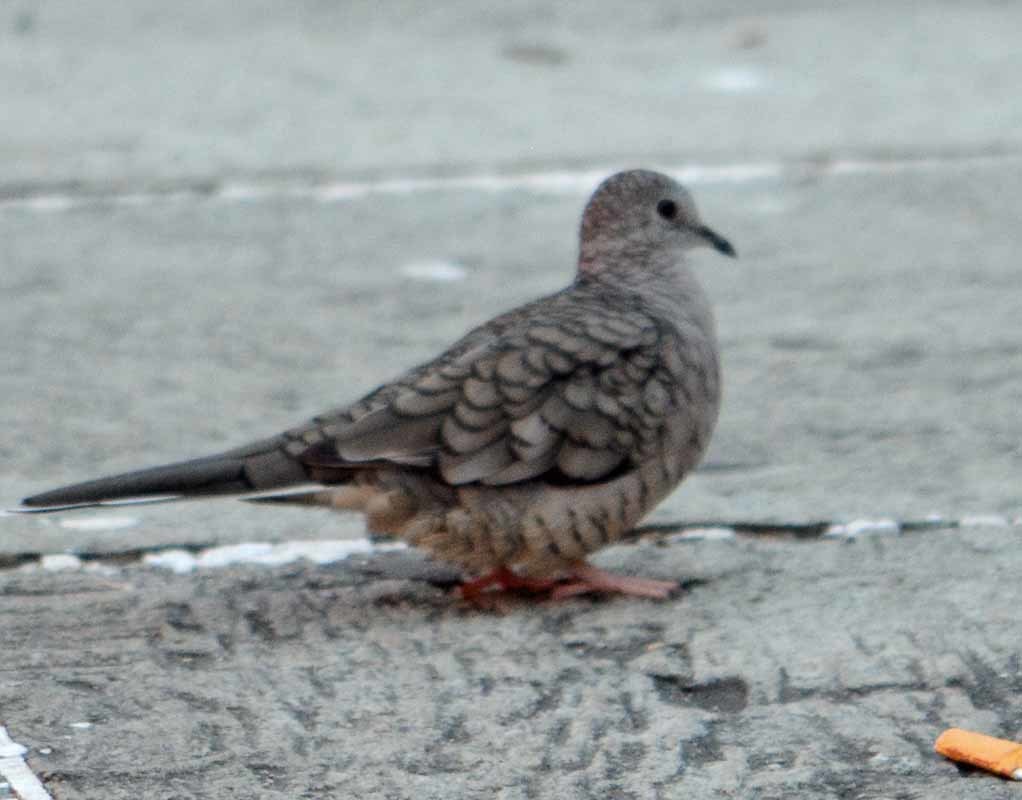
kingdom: Animalia
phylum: Chordata
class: Aves
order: Columbiformes
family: Columbidae
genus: Columbina
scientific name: Columbina inca
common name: Inca dove
